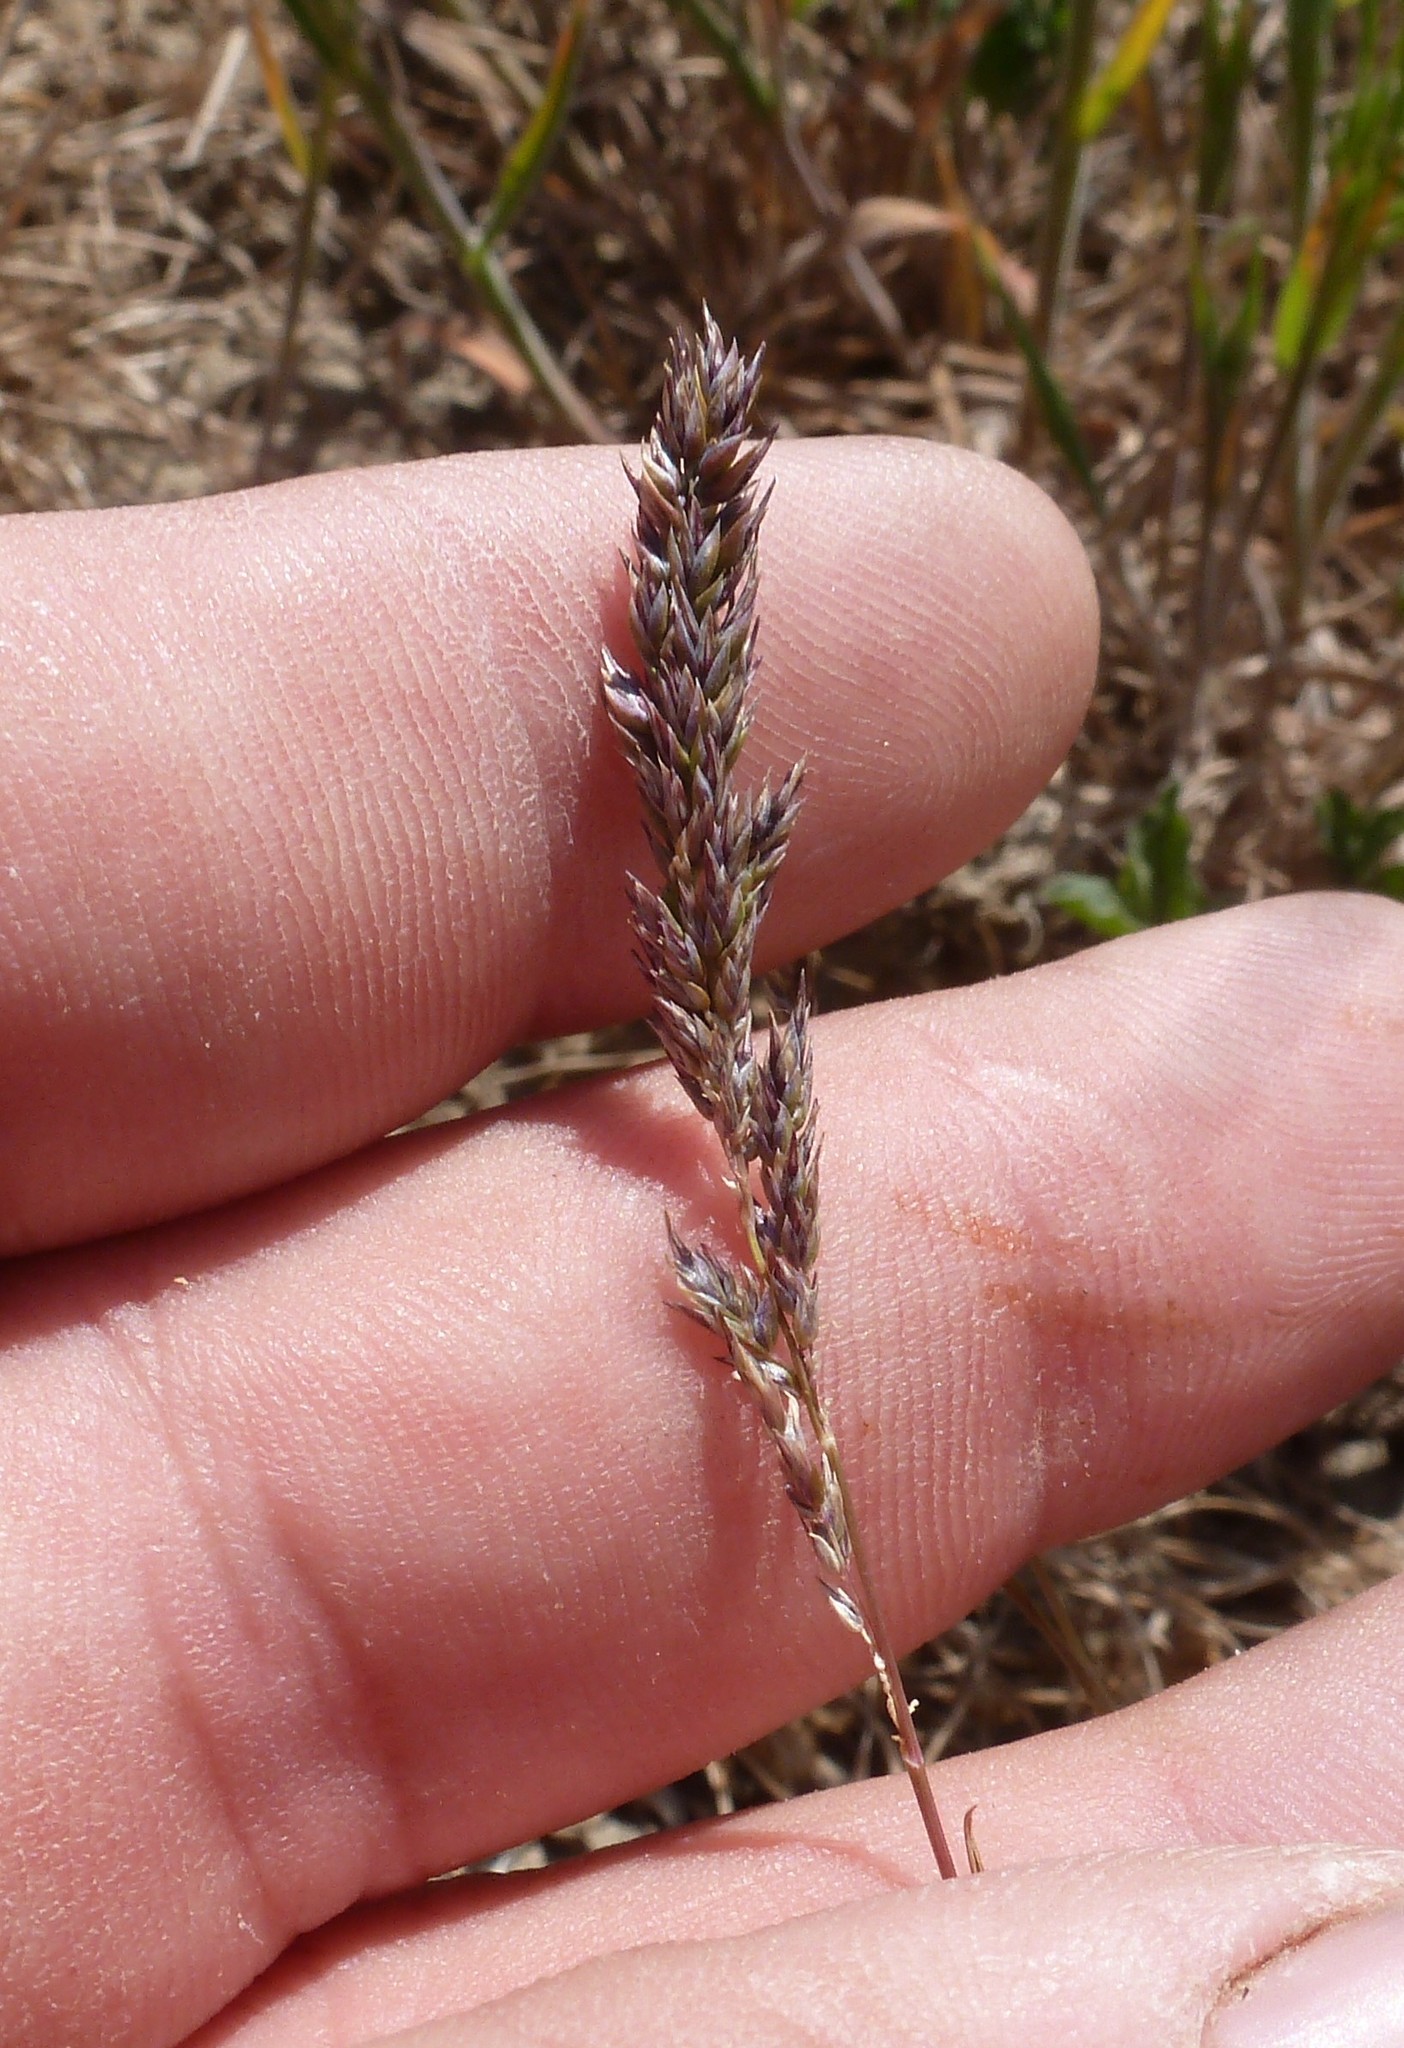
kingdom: Plantae
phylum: Tracheophyta
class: Liliopsida
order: Poales
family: Poaceae
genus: Poa
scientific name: Poa bulbosa
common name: Bulbous bluegrass
